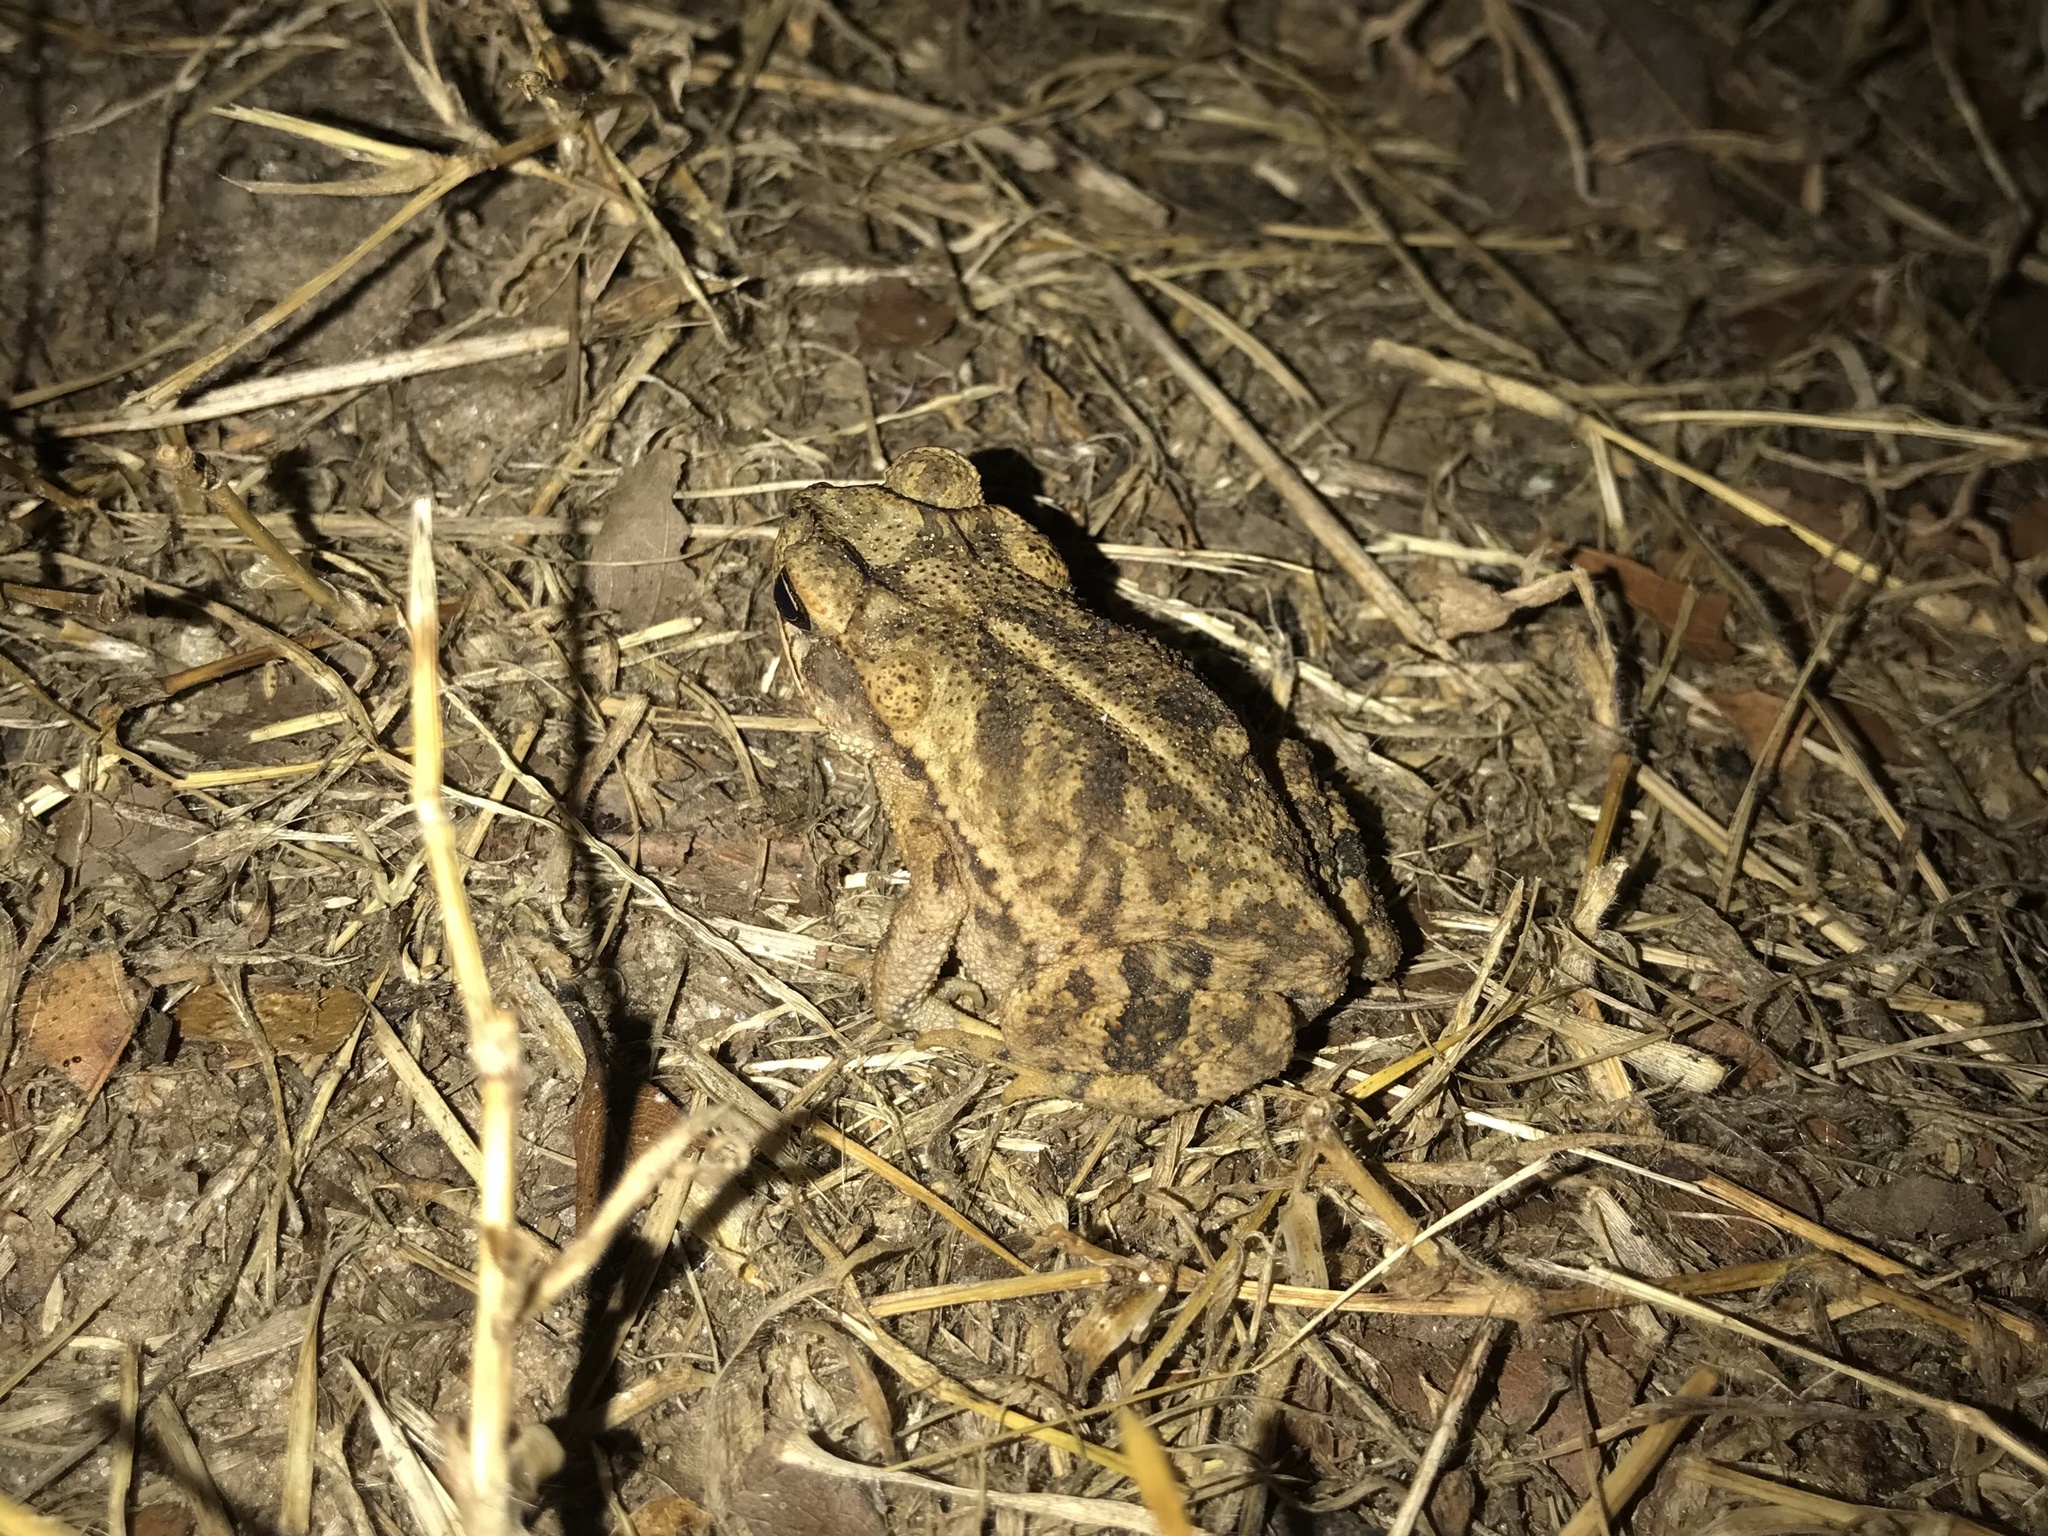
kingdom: Animalia
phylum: Chordata
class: Amphibia
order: Anura
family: Bufonidae
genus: Incilius
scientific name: Incilius nebulifer
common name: Gulf coast toad
